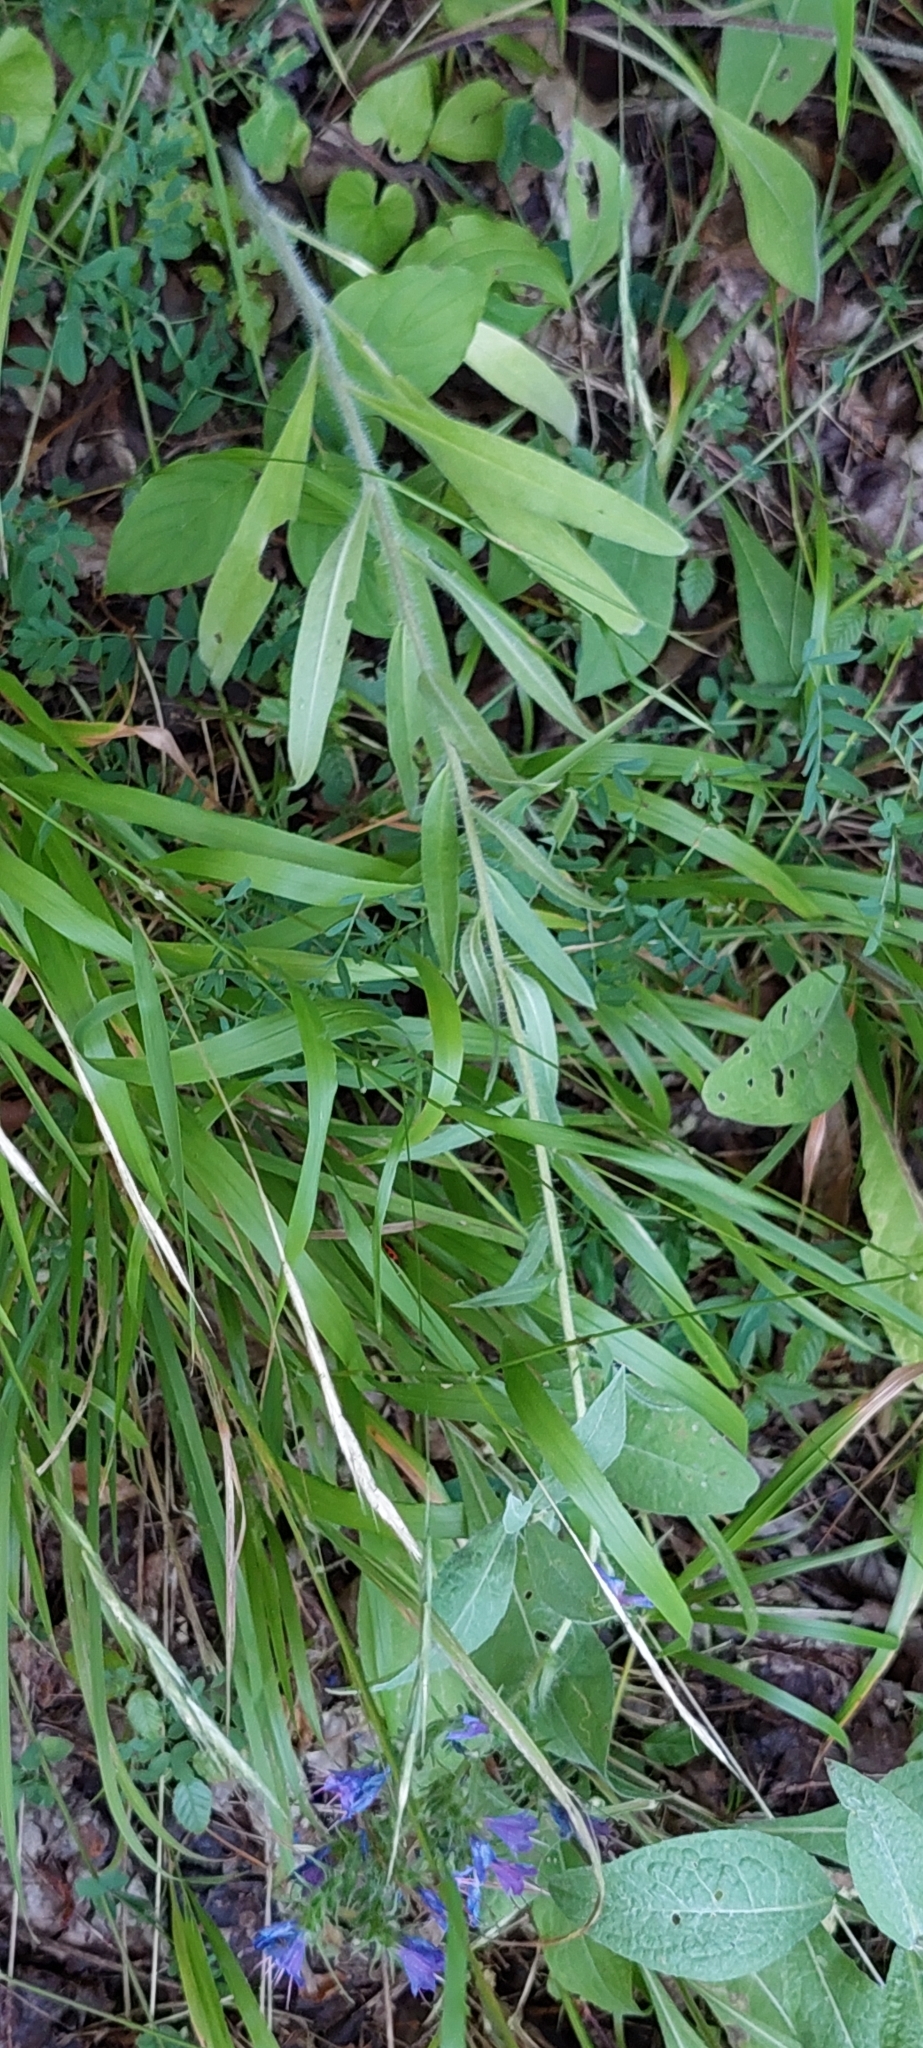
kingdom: Plantae
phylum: Tracheophyta
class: Magnoliopsida
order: Boraginales
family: Boraginaceae
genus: Echium
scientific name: Echium vulgare
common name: Common viper's bugloss
